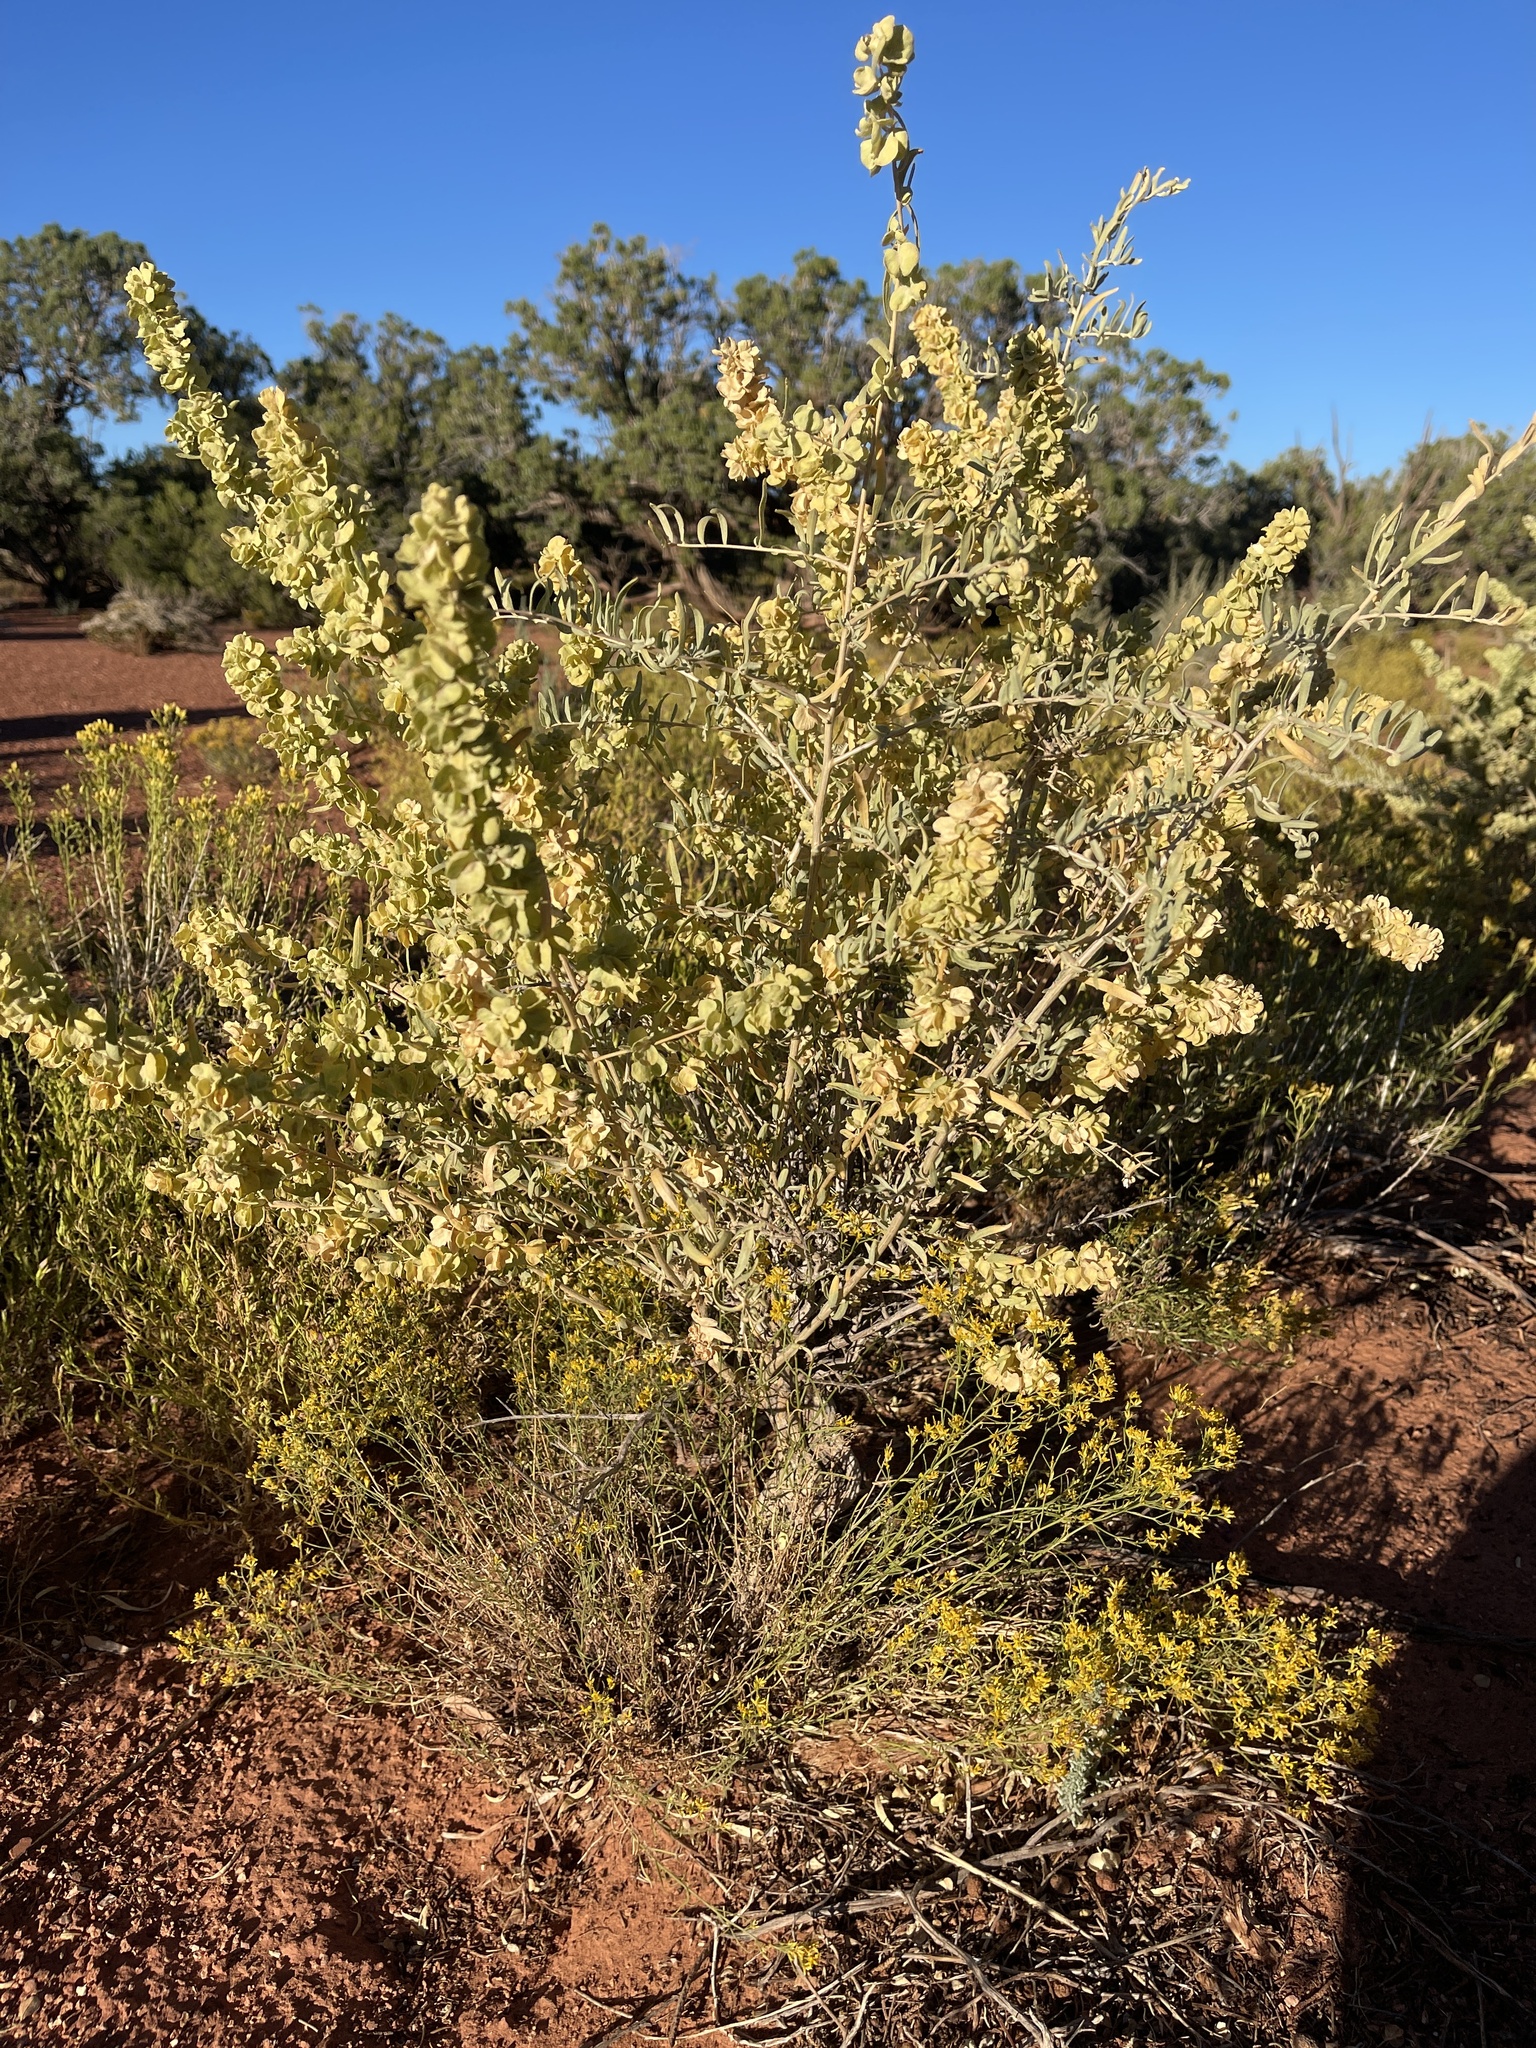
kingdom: Plantae
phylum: Tracheophyta
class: Magnoliopsida
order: Caryophyllales
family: Amaranthaceae
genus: Atriplex
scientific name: Atriplex canescens
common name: Four-wing saltbush
